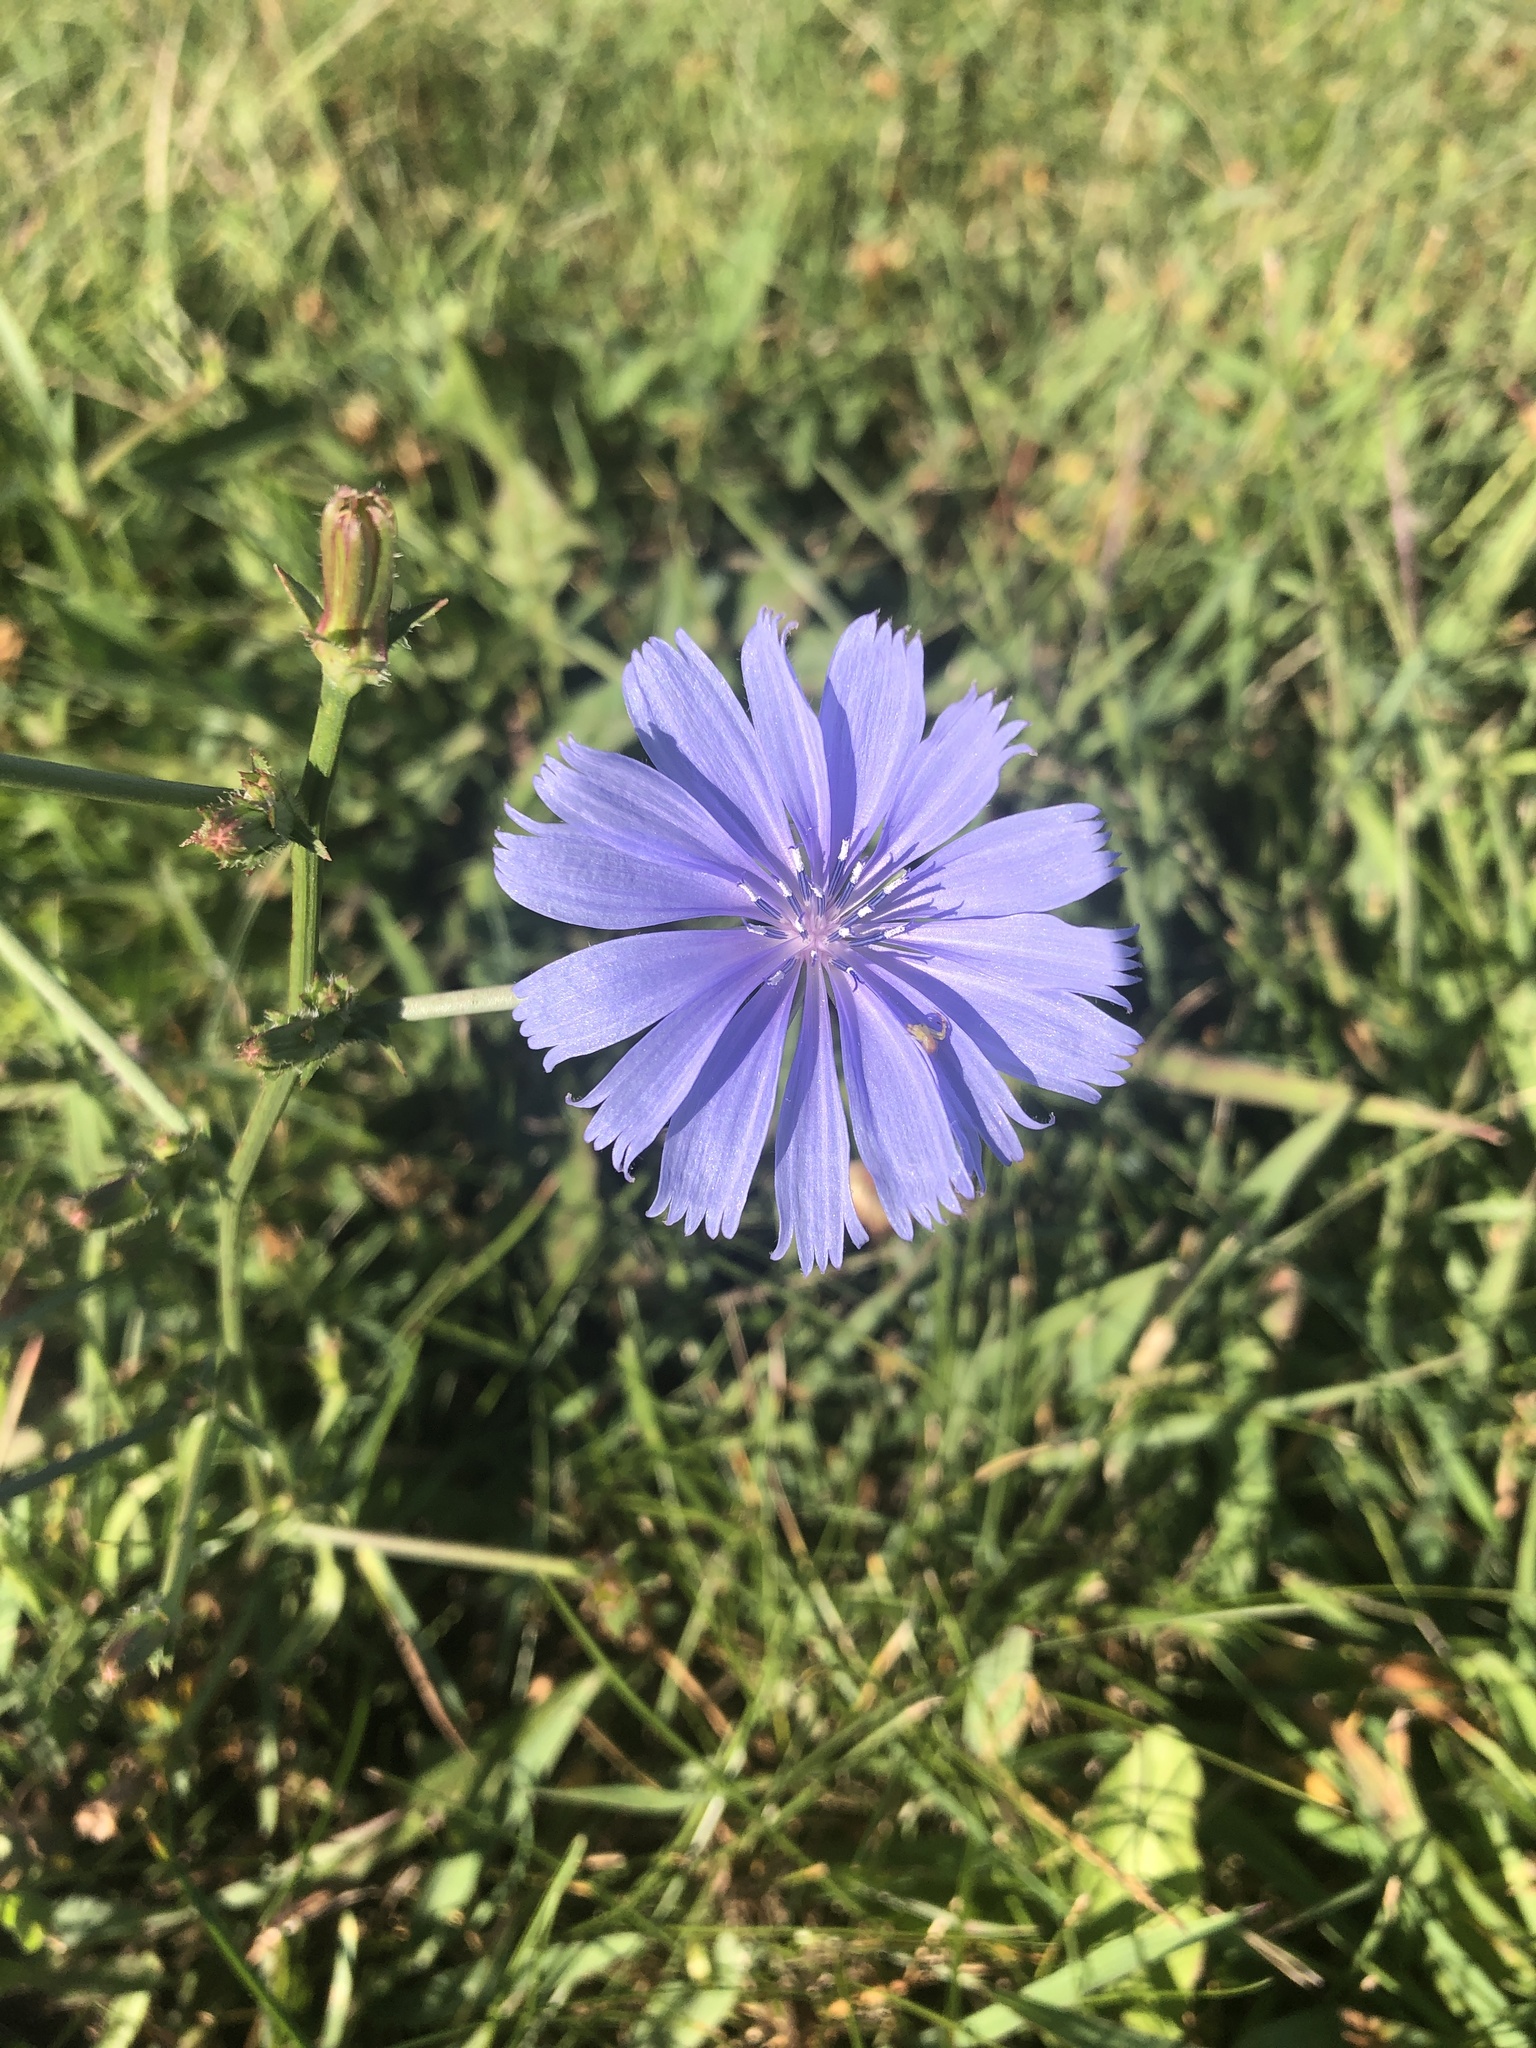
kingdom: Plantae
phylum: Tracheophyta
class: Magnoliopsida
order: Asterales
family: Asteraceae
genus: Cichorium
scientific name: Cichorium intybus
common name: Chicory
